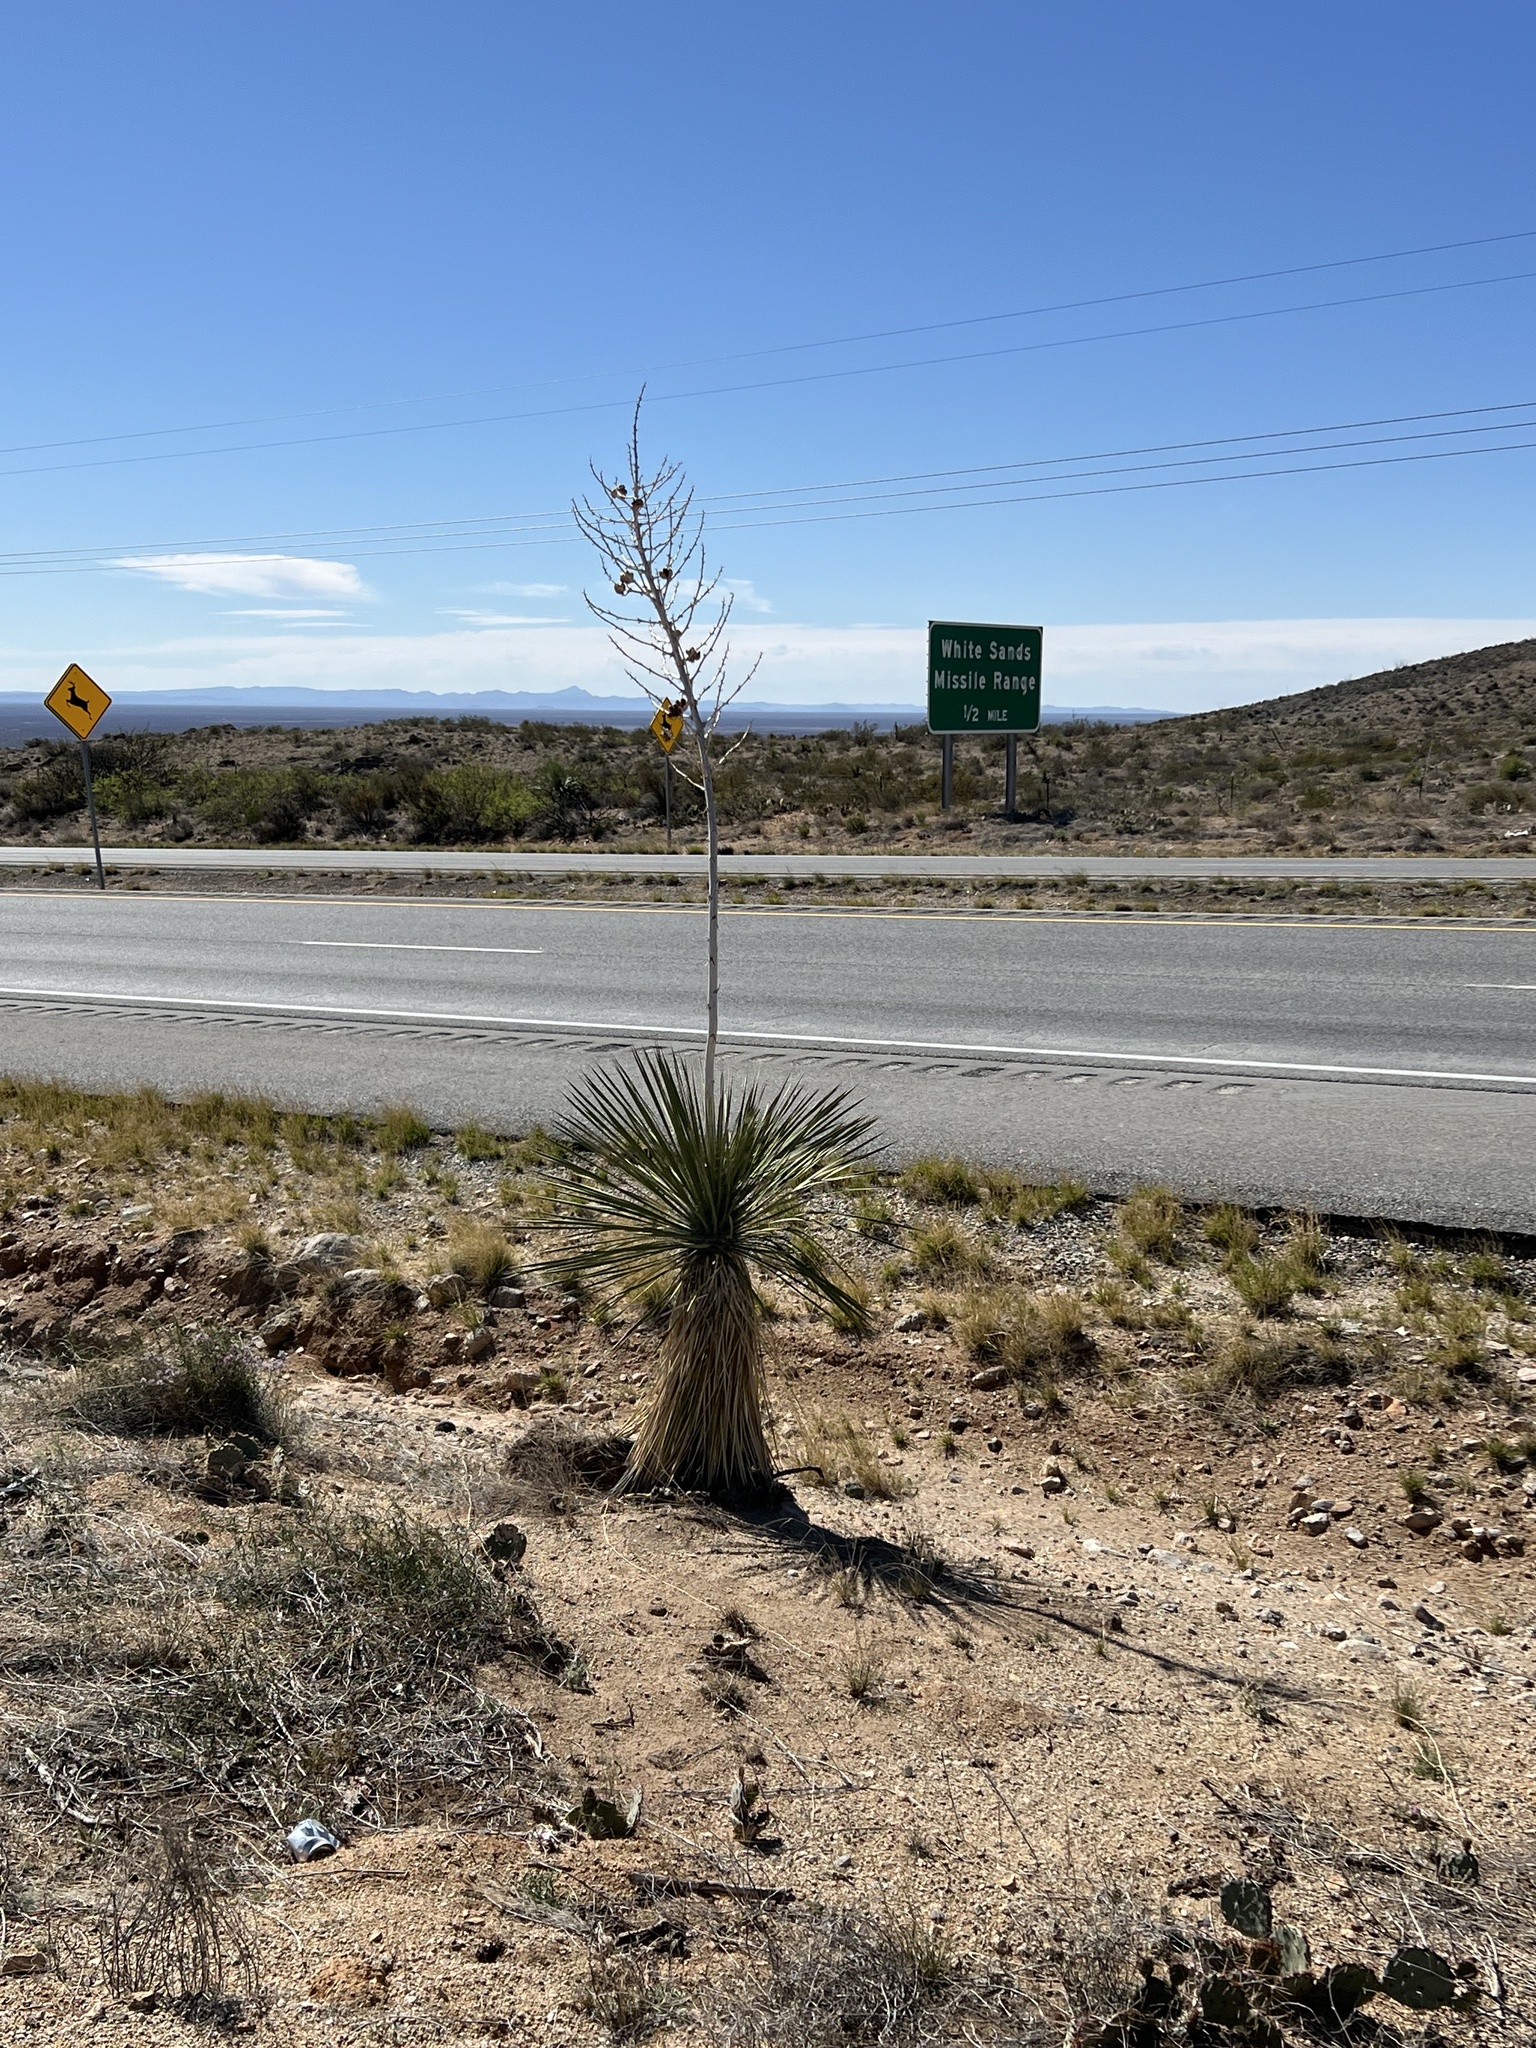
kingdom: Plantae
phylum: Tracheophyta
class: Liliopsida
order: Asparagales
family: Asparagaceae
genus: Yucca
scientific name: Yucca elata
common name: Palmella
